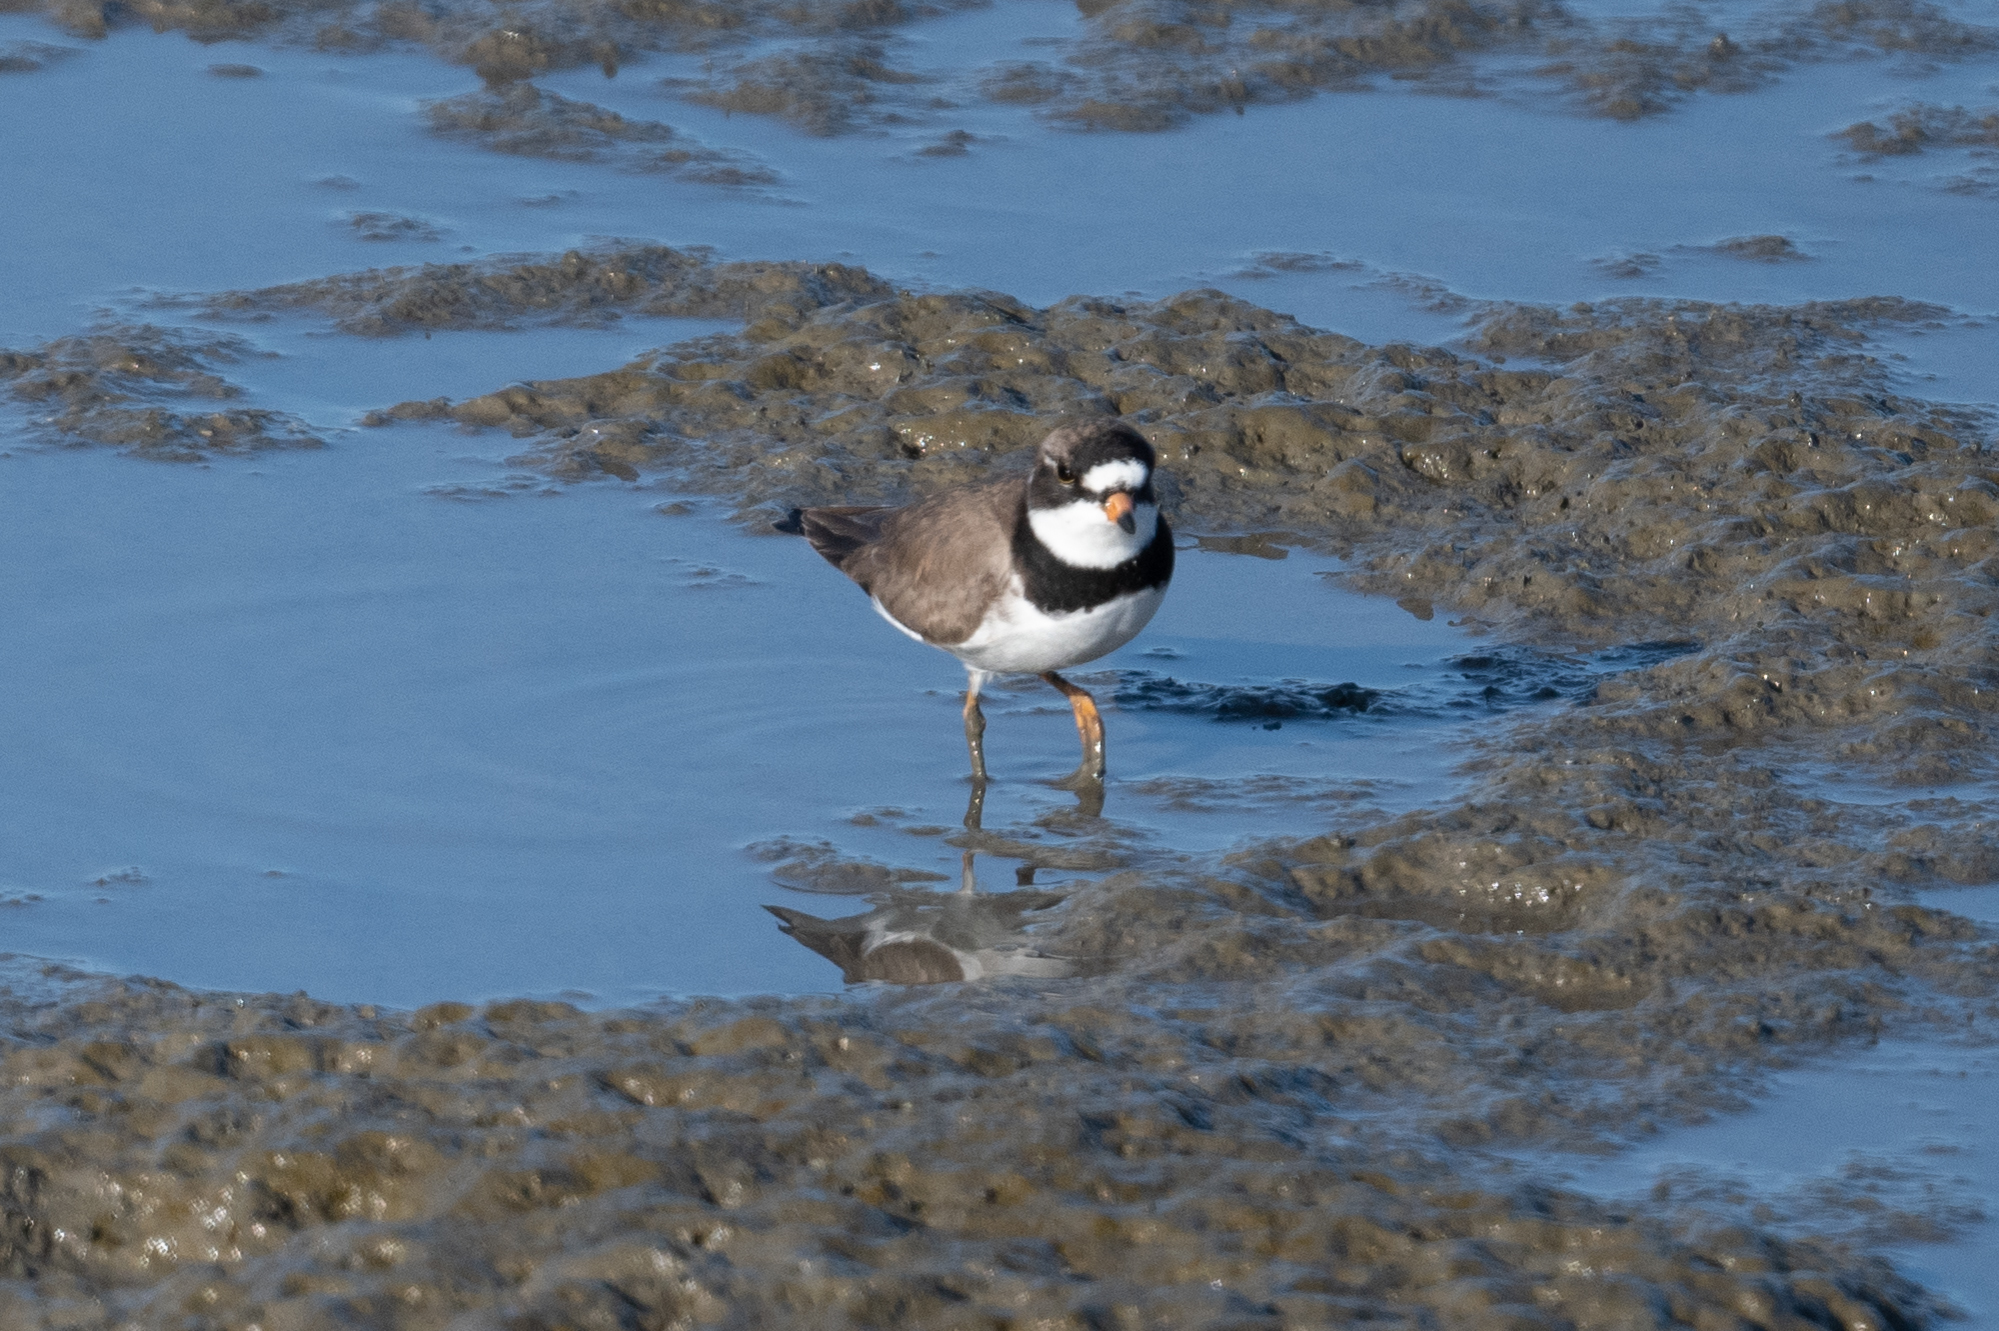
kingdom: Animalia
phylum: Chordata
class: Aves
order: Charadriiformes
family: Charadriidae
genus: Charadrius
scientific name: Charadrius semipalmatus
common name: Semipalmated plover
